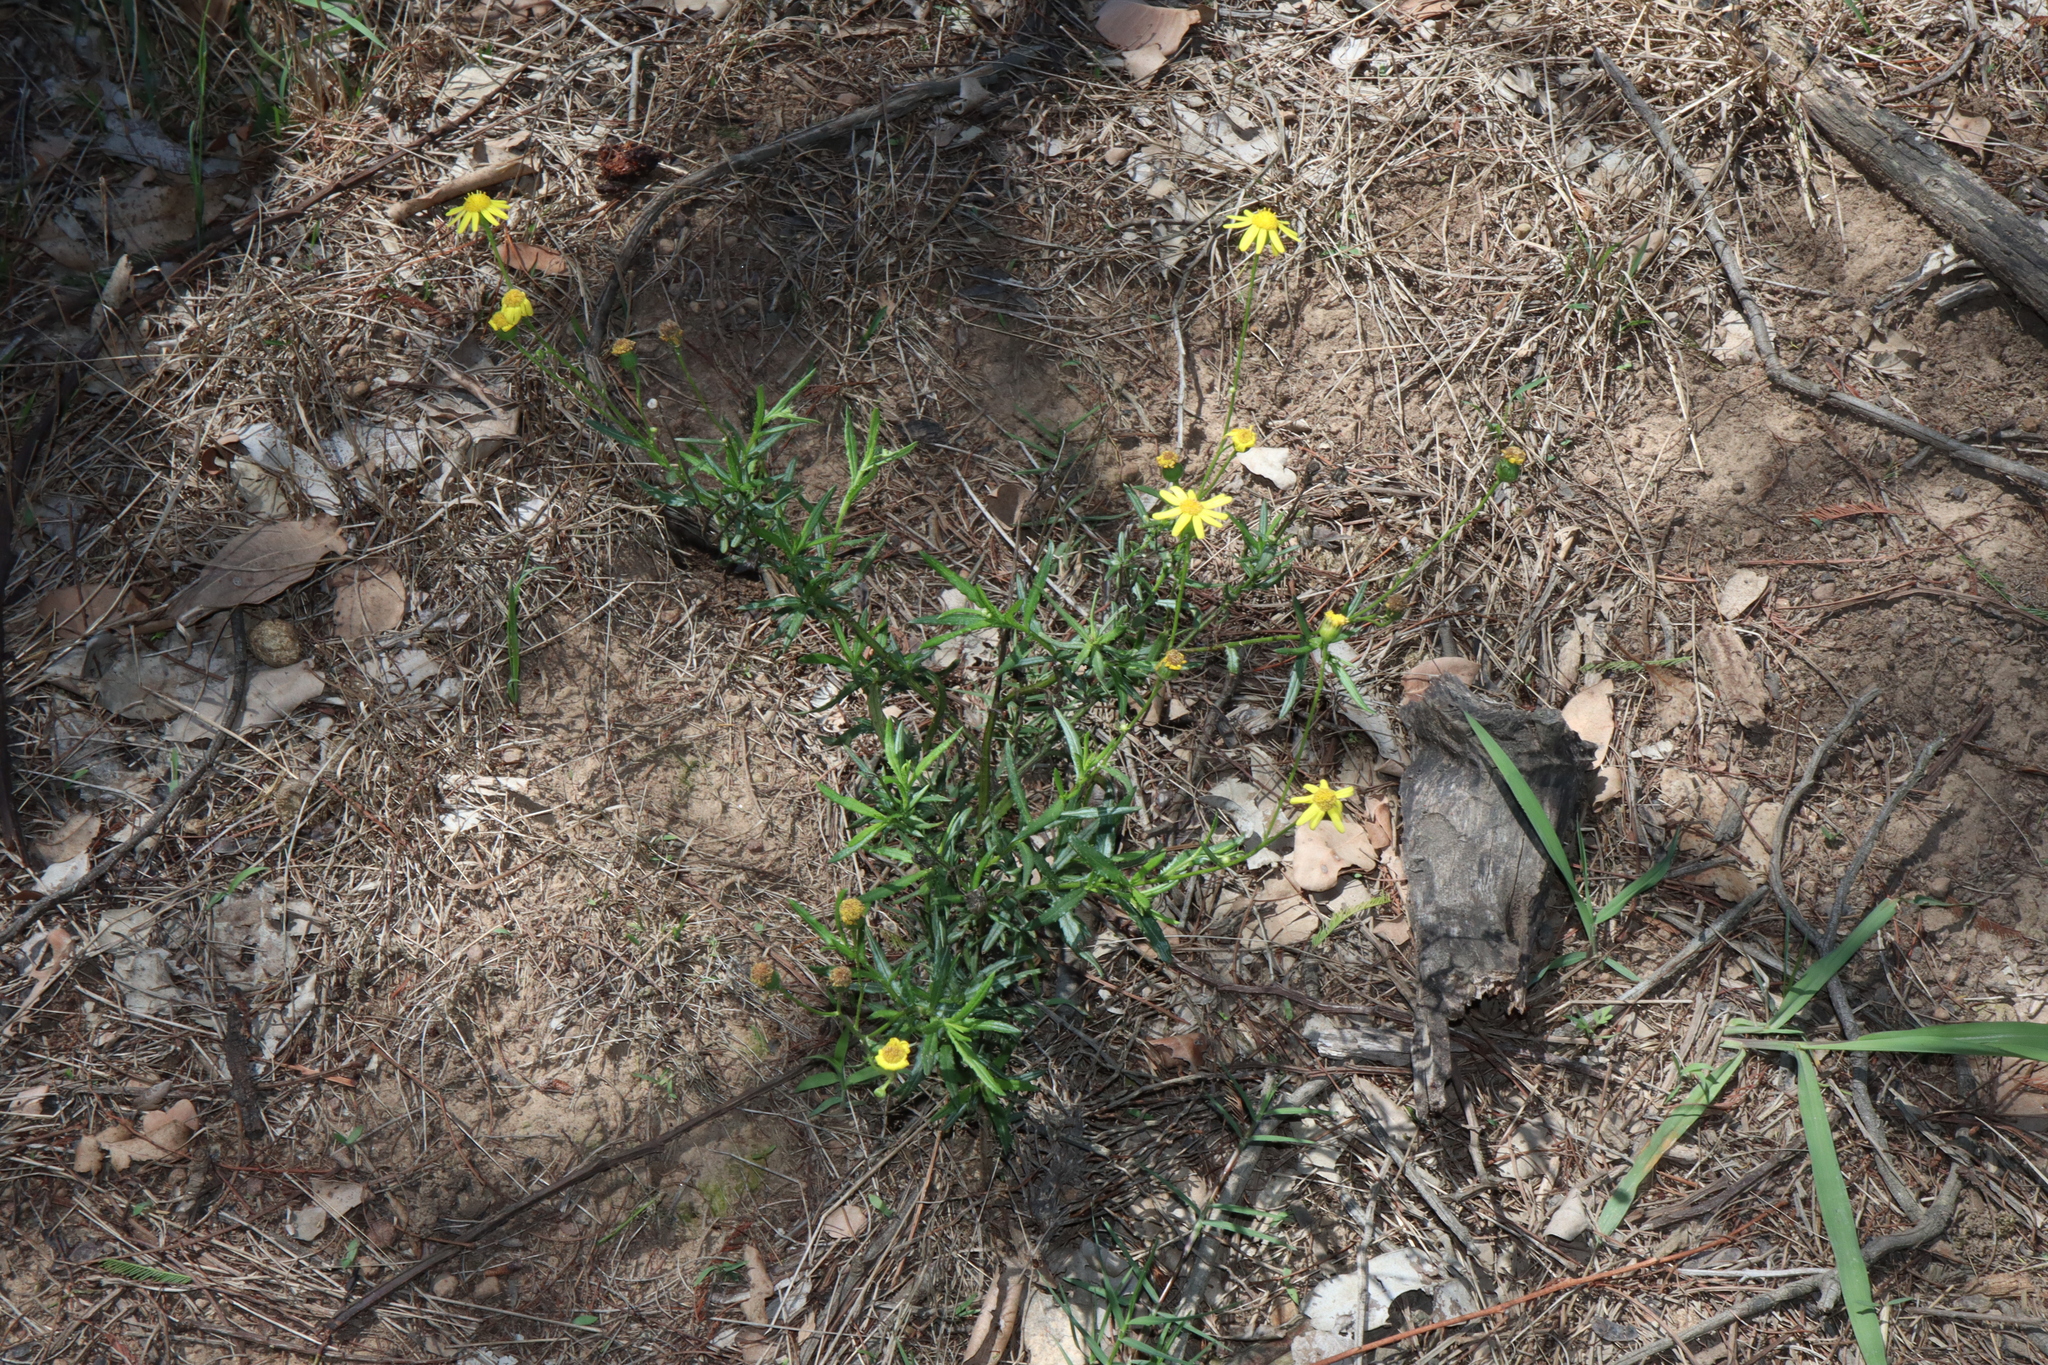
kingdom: Plantae
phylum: Tracheophyta
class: Magnoliopsida
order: Asterales
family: Asteraceae
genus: Senecio
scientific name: Senecio madagascariensis
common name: Madagascar ragwort
